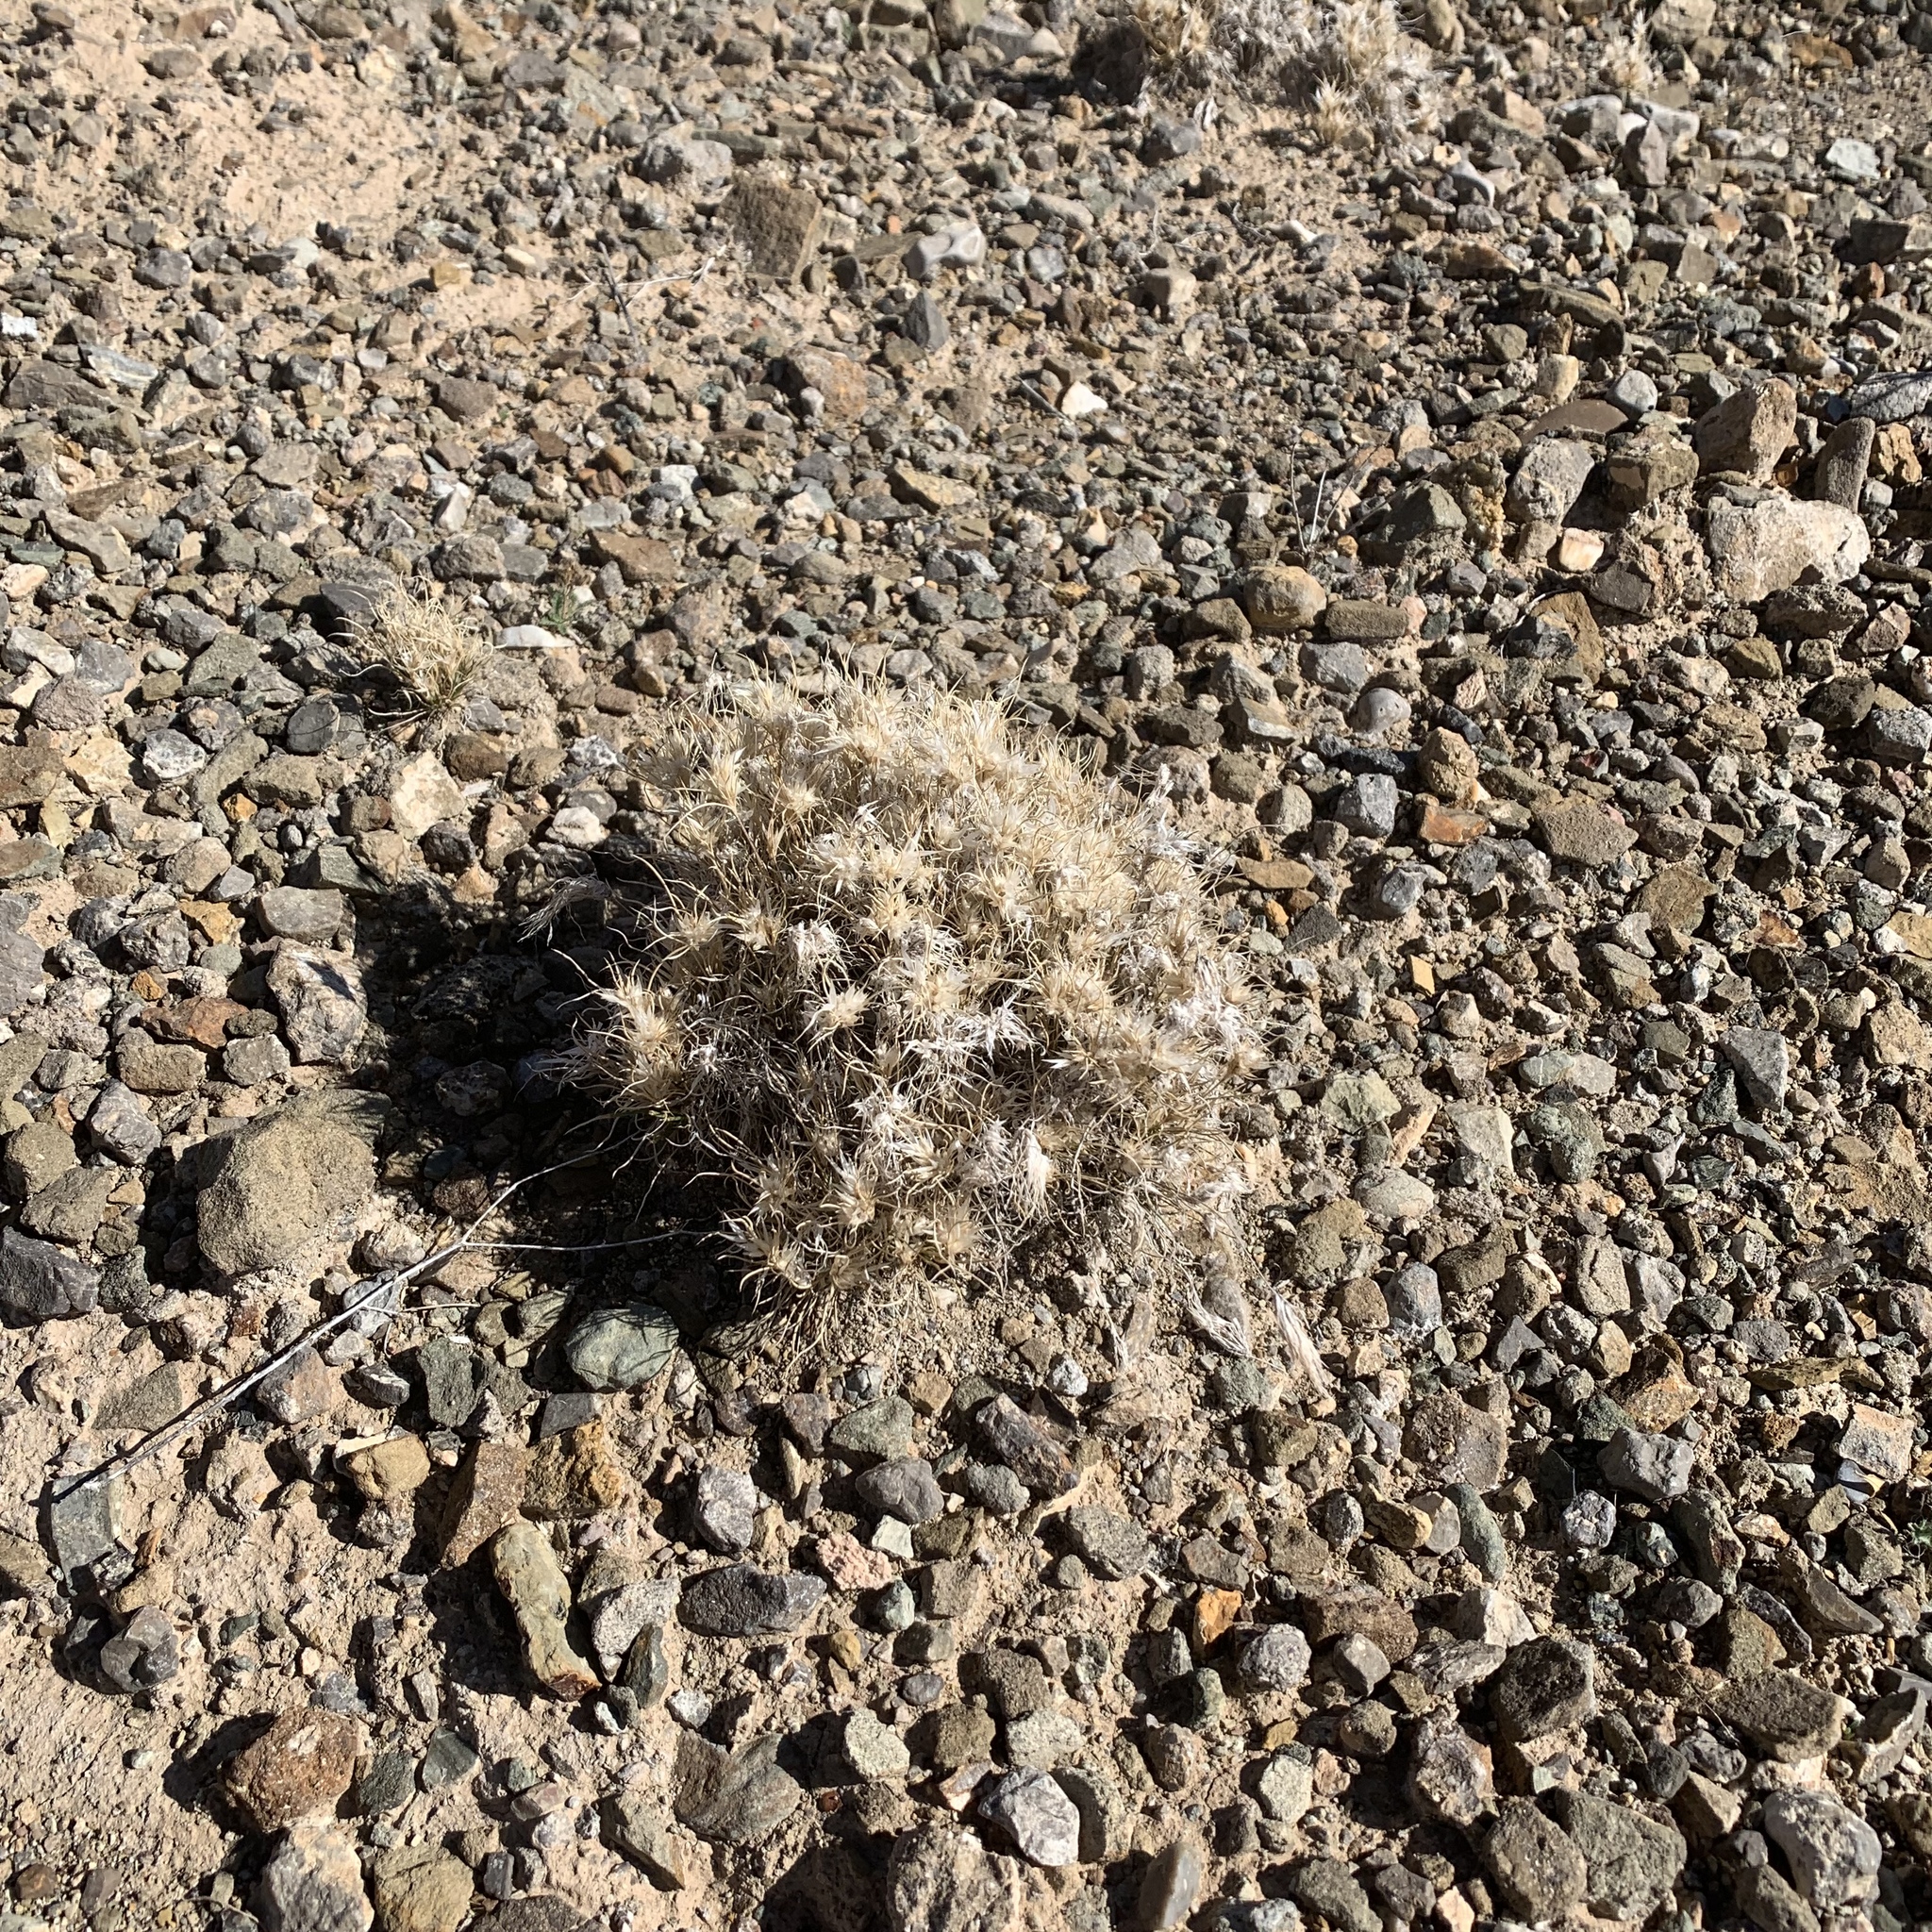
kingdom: Plantae
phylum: Tracheophyta
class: Liliopsida
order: Poales
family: Poaceae
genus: Dasyochloa
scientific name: Dasyochloa pulchella
